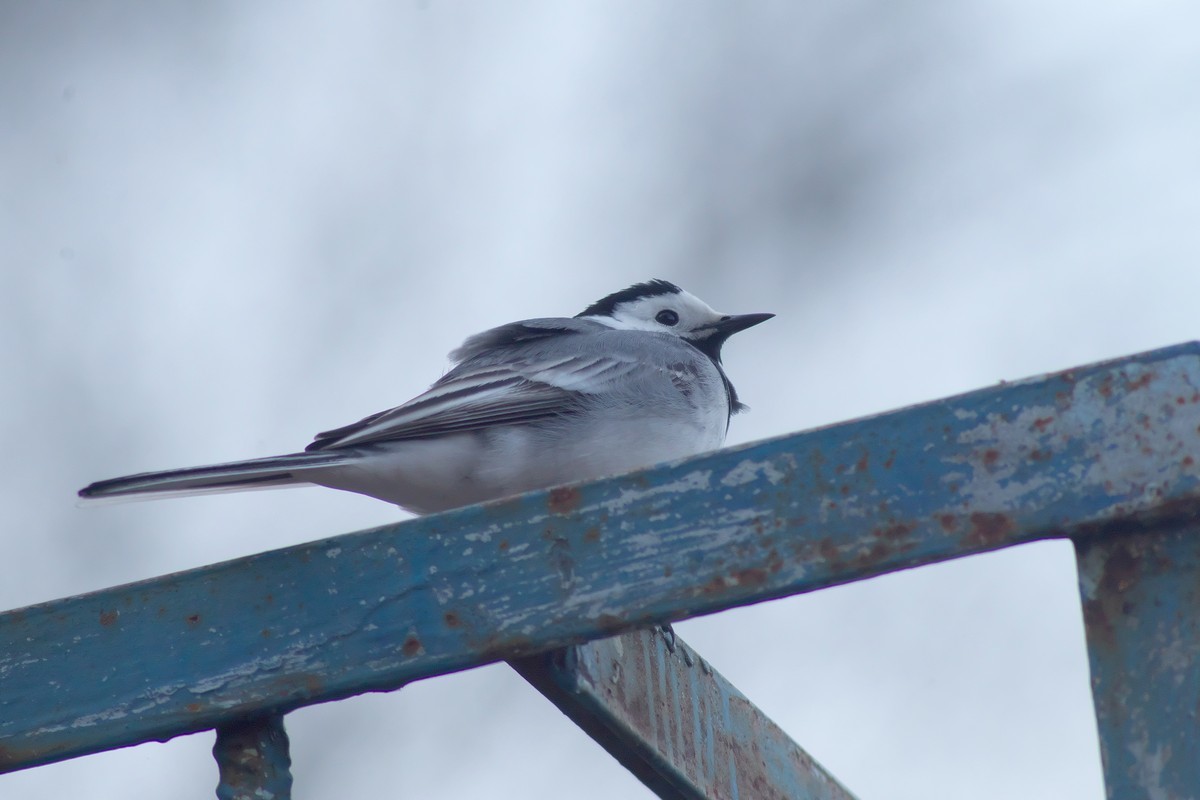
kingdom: Animalia
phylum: Chordata
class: Aves
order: Passeriformes
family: Motacillidae
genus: Motacilla
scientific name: Motacilla alba
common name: White wagtail
